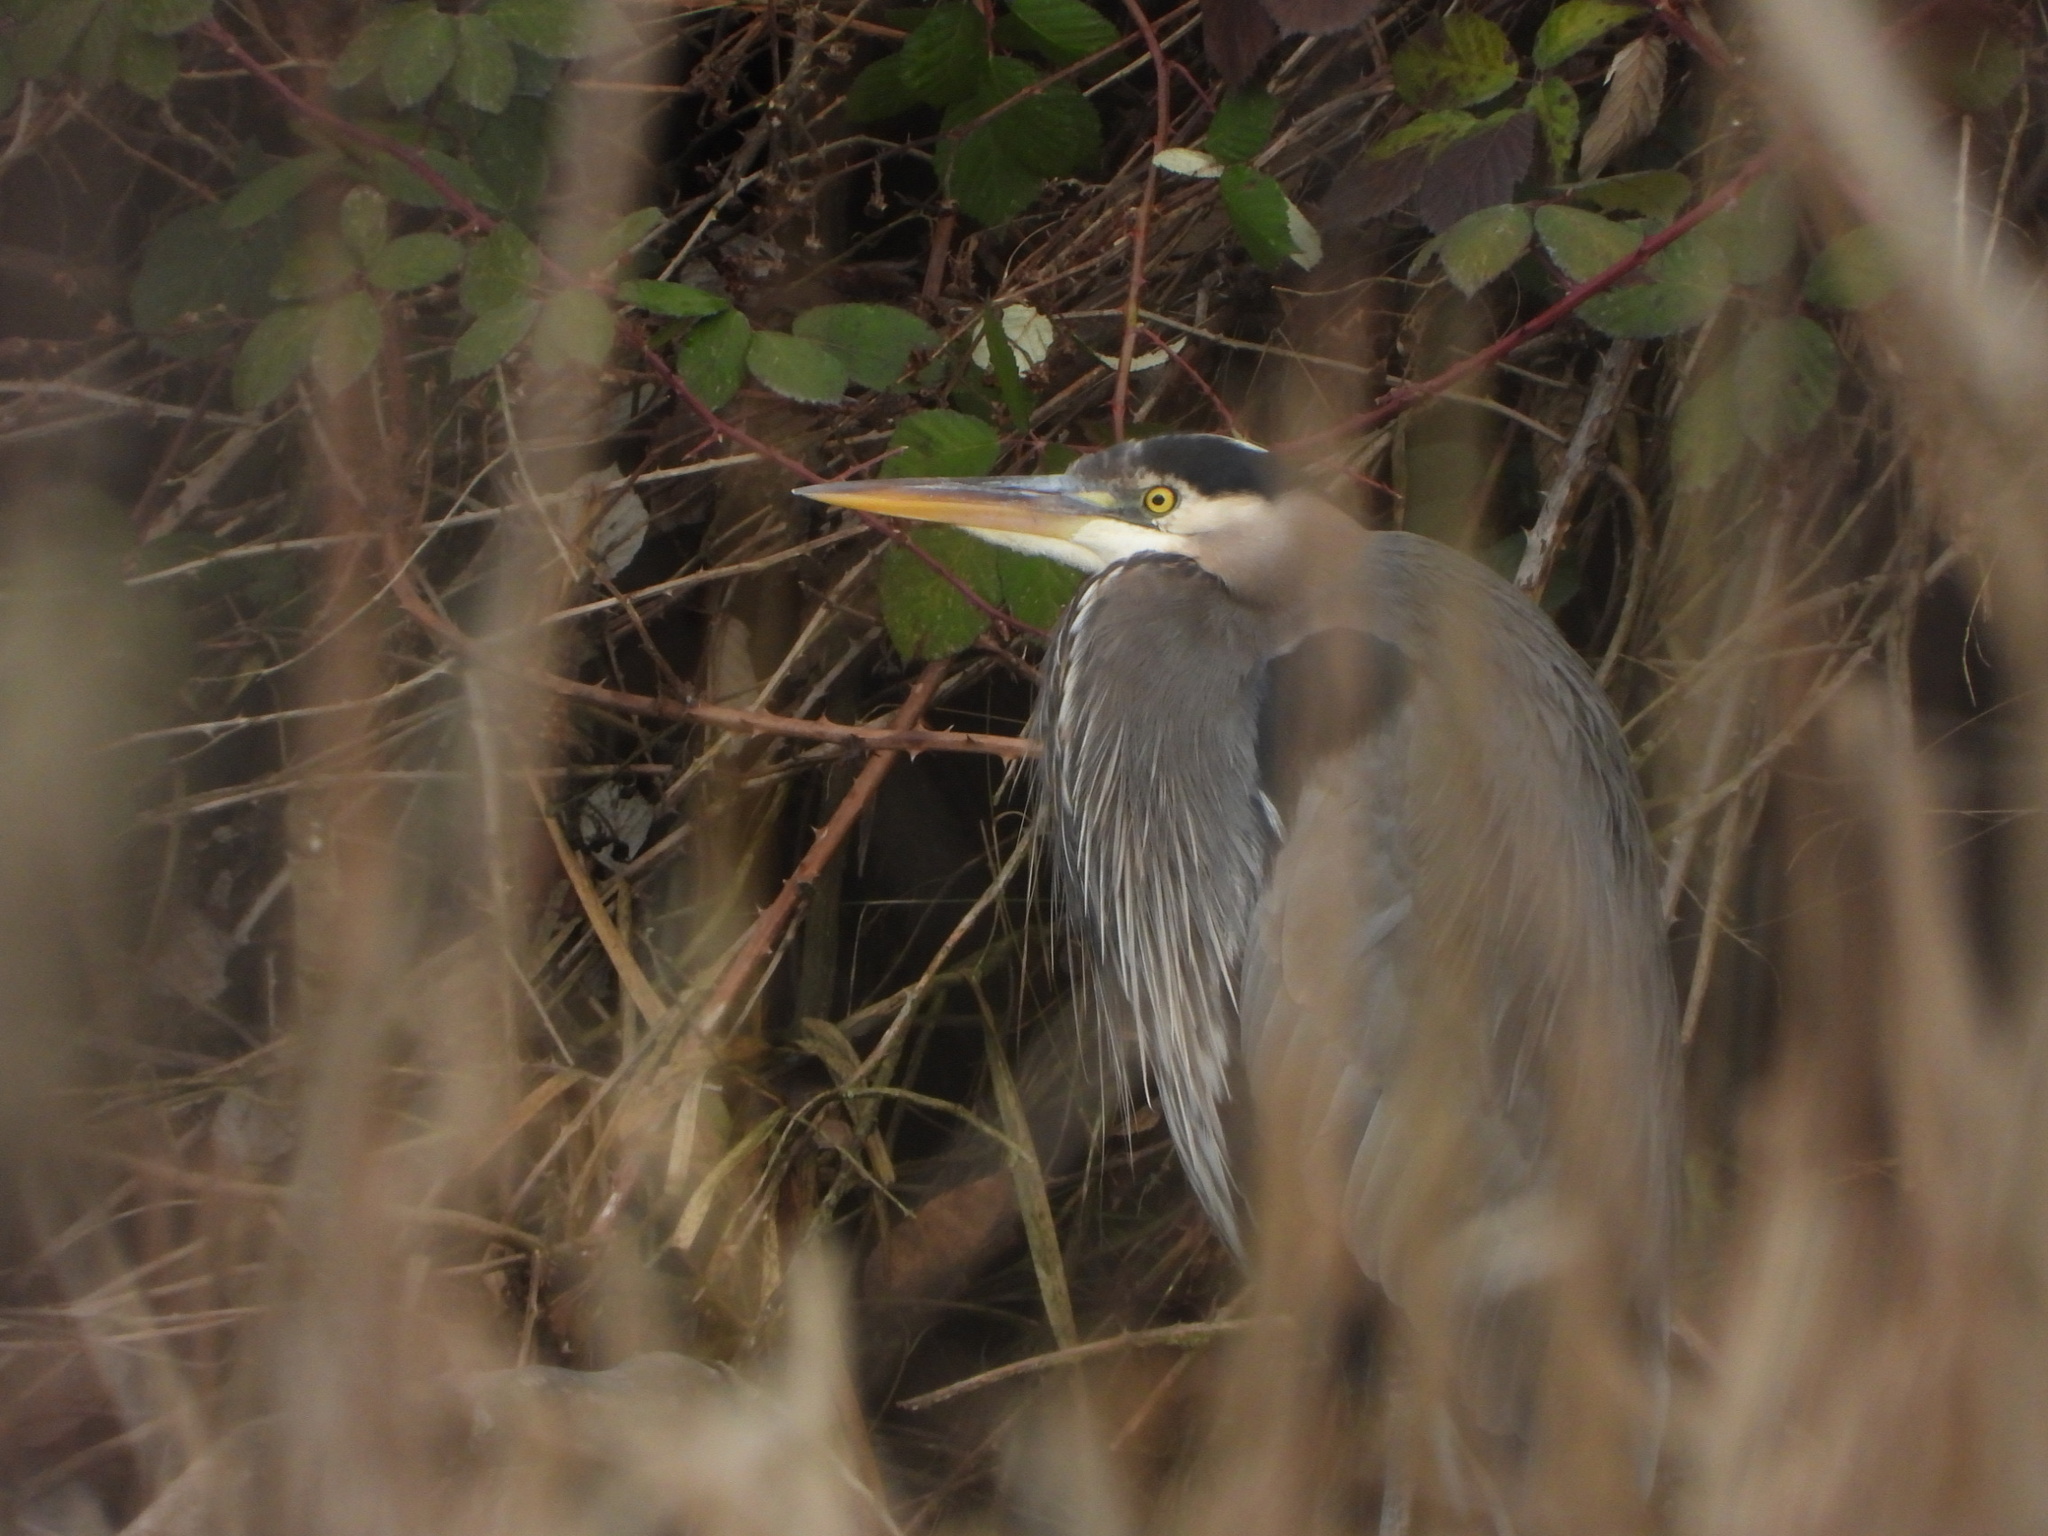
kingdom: Animalia
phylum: Chordata
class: Aves
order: Pelecaniformes
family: Ardeidae
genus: Ardea
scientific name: Ardea herodias
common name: Great blue heron
